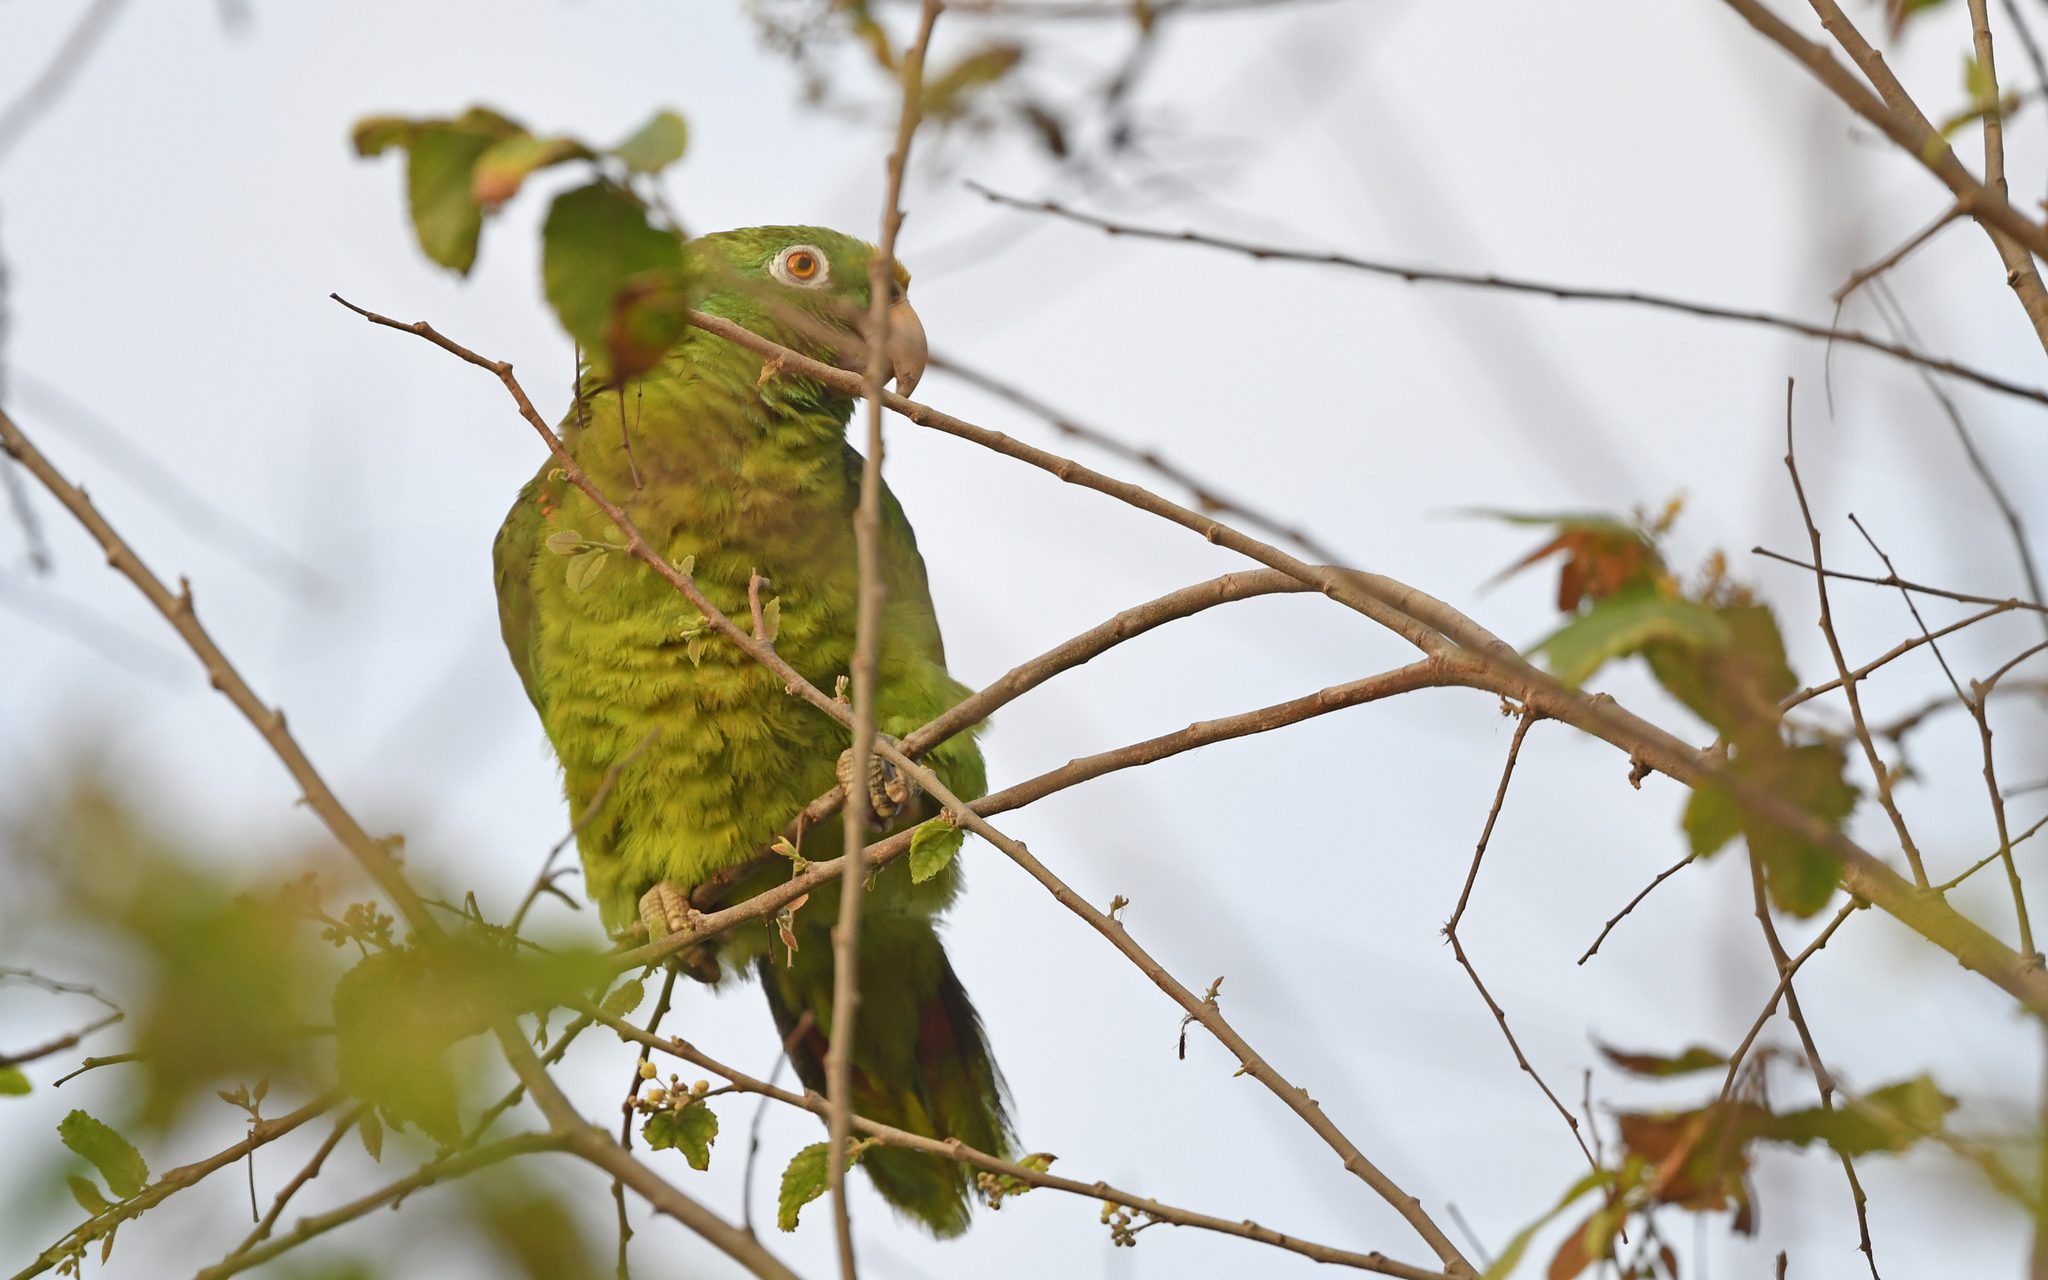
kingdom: Animalia
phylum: Chordata
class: Aves
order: Psittaciformes
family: Psittacidae
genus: Amazona
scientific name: Amazona ochrocephala
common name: Yellow-crowned amazon
